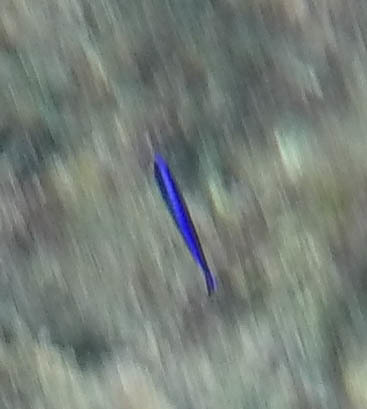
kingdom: Animalia
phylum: Chordata
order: Perciformes
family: Labridae
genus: Labroides
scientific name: Labroides phthirophagus
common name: Cleaner wrasse
